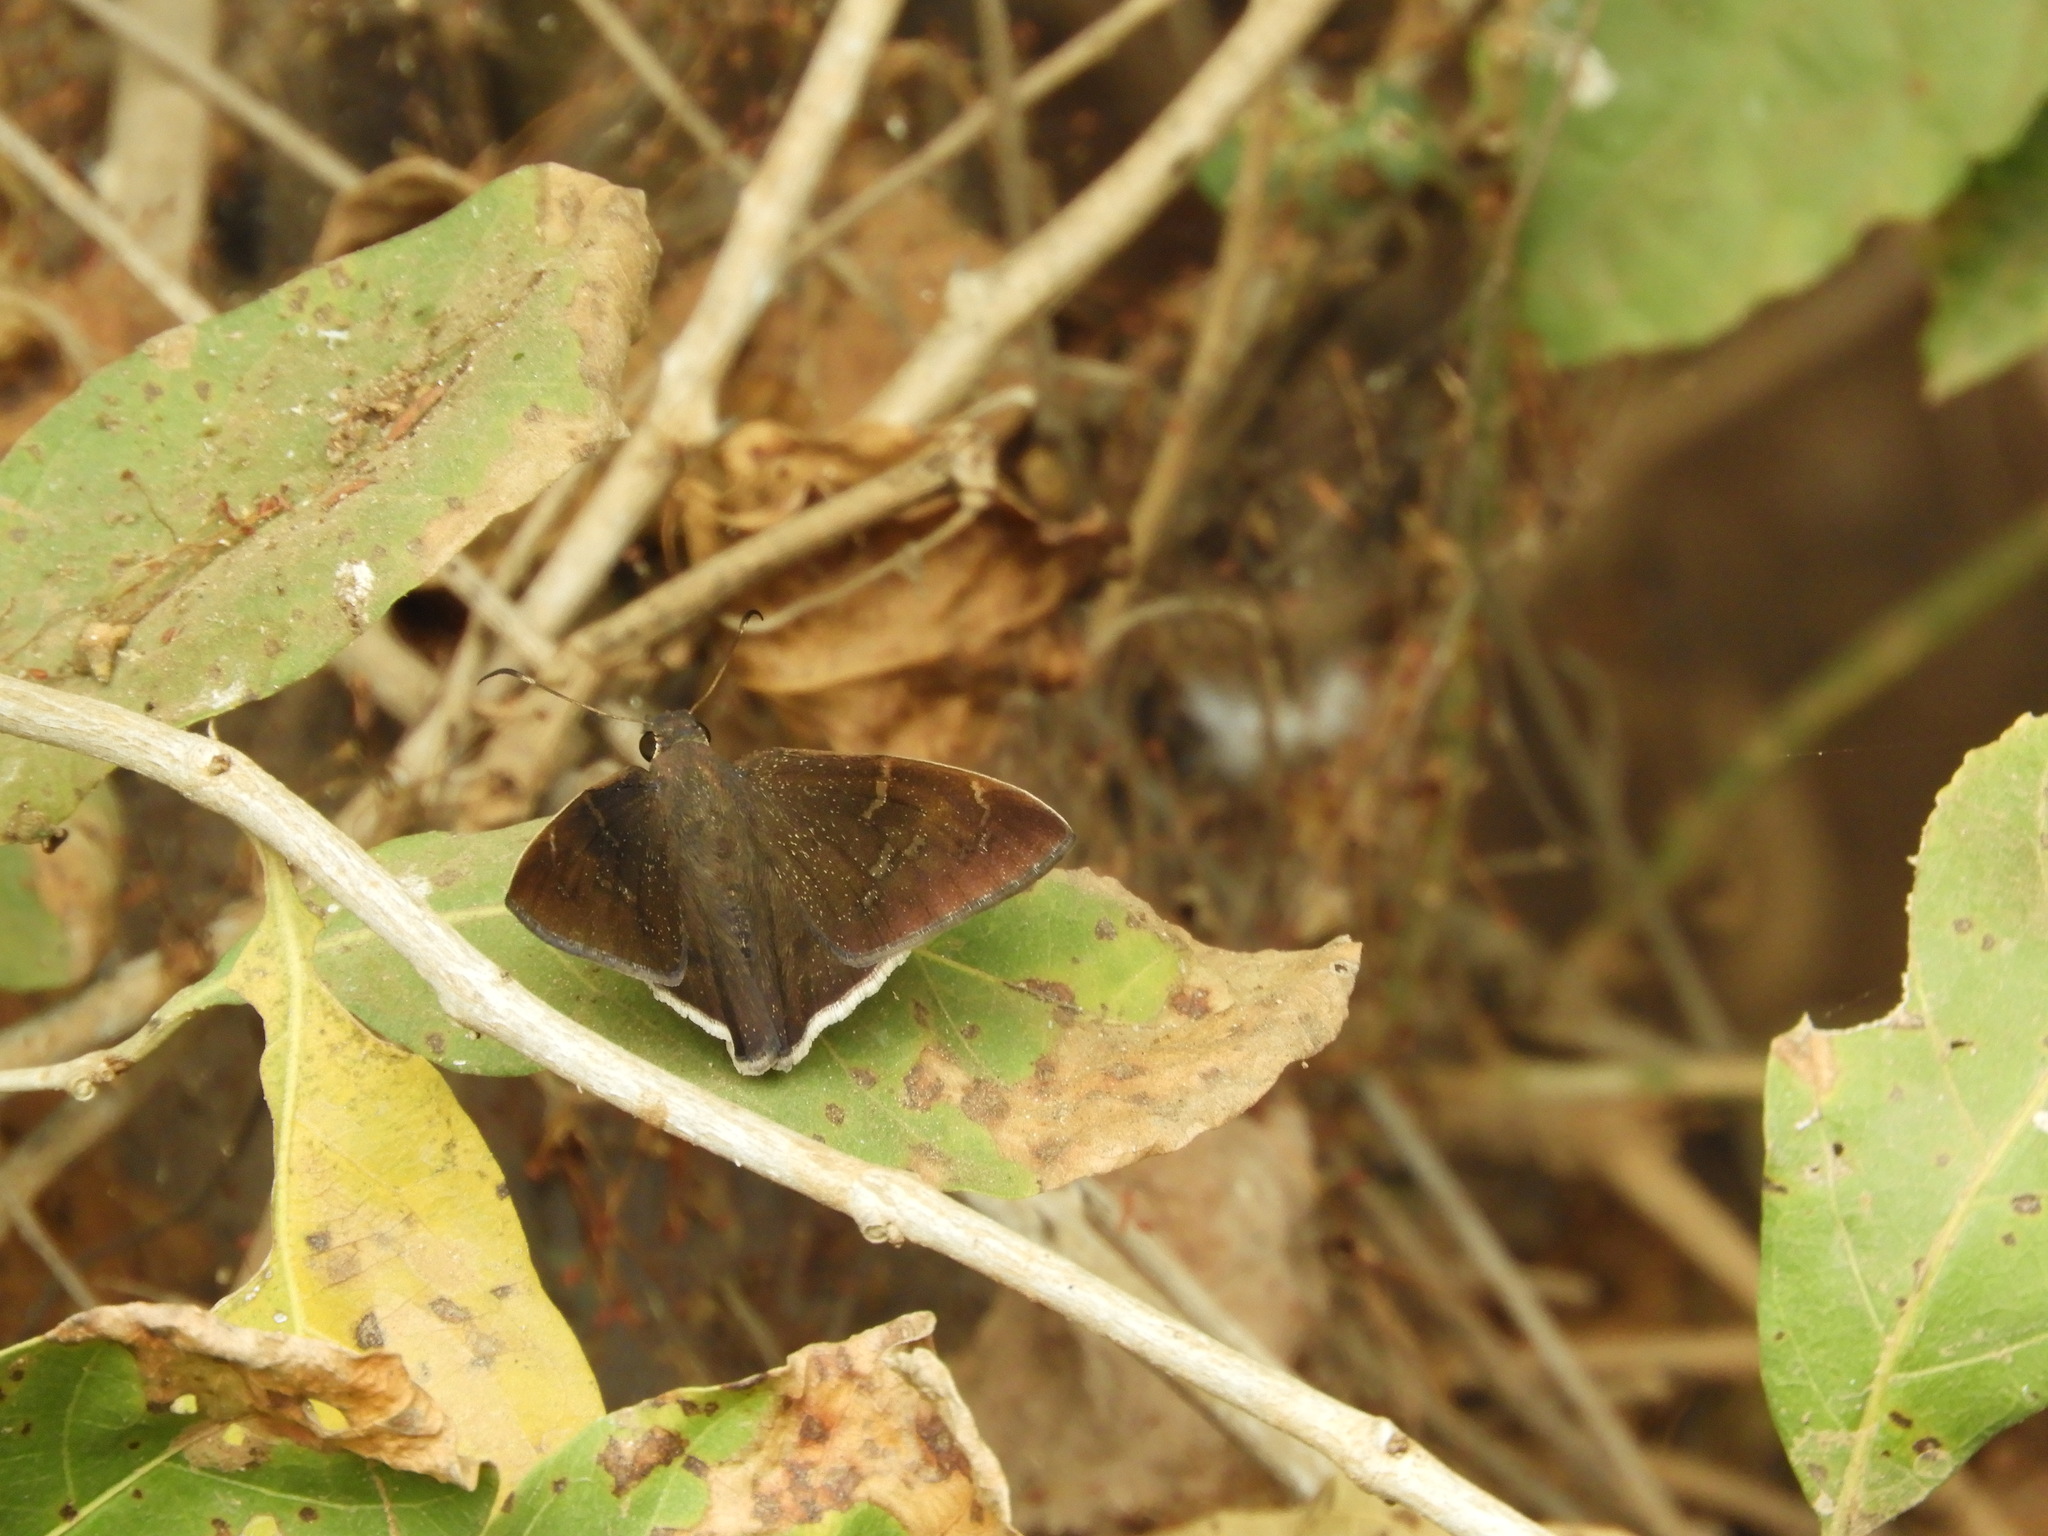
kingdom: Animalia
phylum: Arthropoda
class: Insecta
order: Lepidoptera
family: Hesperiidae
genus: Achalarus
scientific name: Achalarus Murgaria albociliatus
